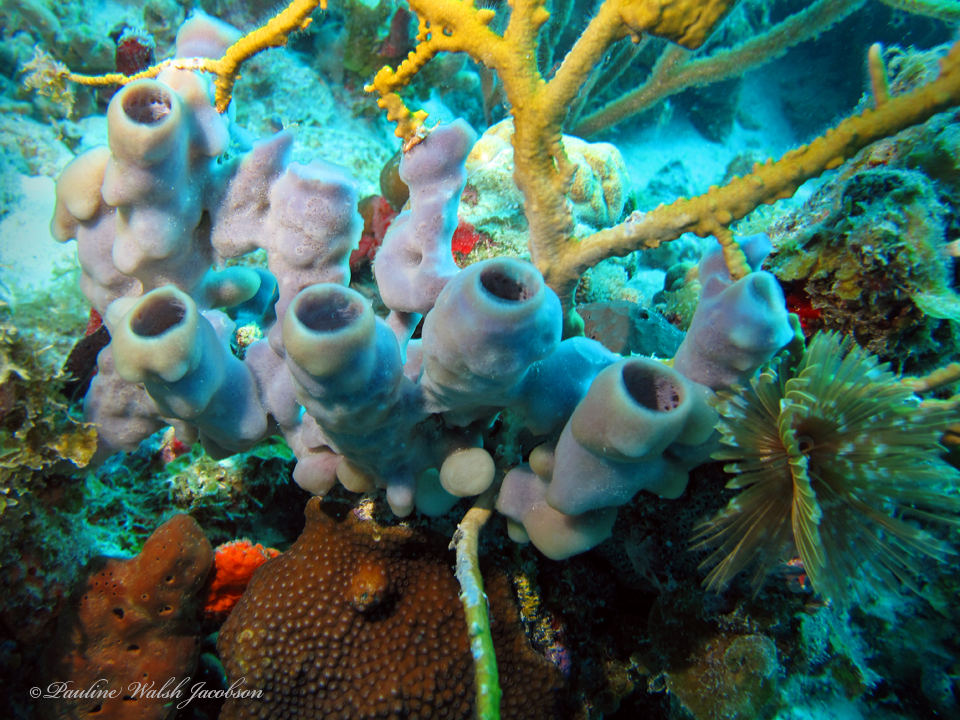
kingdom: Animalia
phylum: Porifera
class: Demospongiae
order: Haplosclerida
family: Callyspongiidae
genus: Callyspongia
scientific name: Callyspongia fallax
